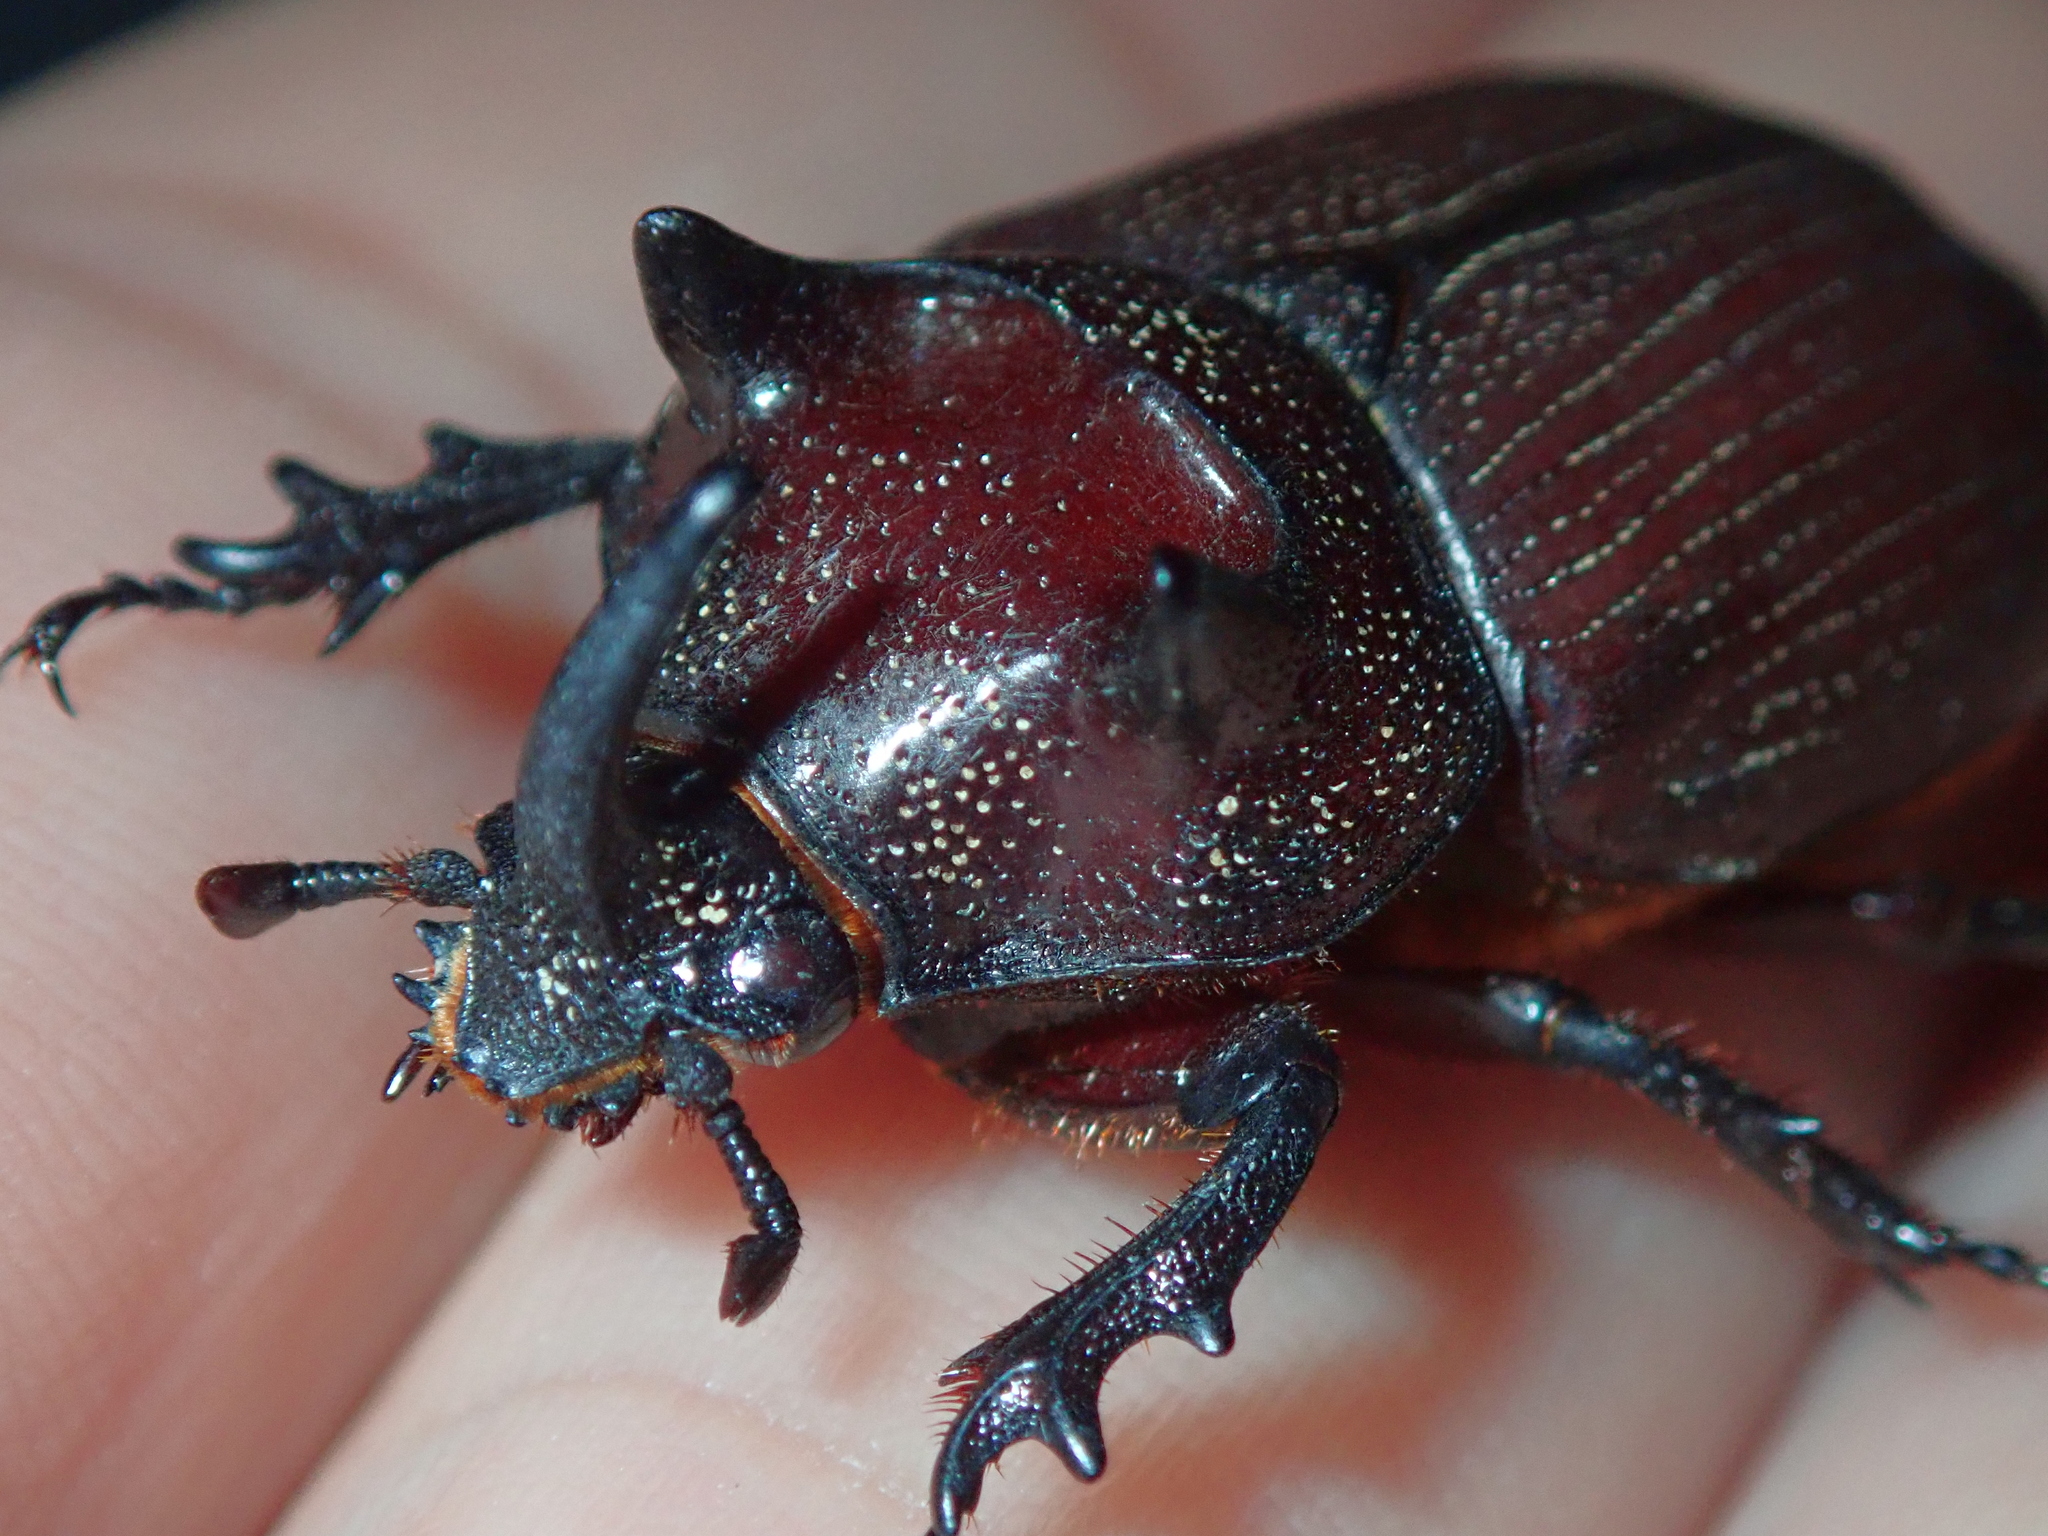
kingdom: Animalia
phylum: Arthropoda
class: Insecta
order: Coleoptera
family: Scarabaeidae
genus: Coelosis
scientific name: Coelosis bicornis
